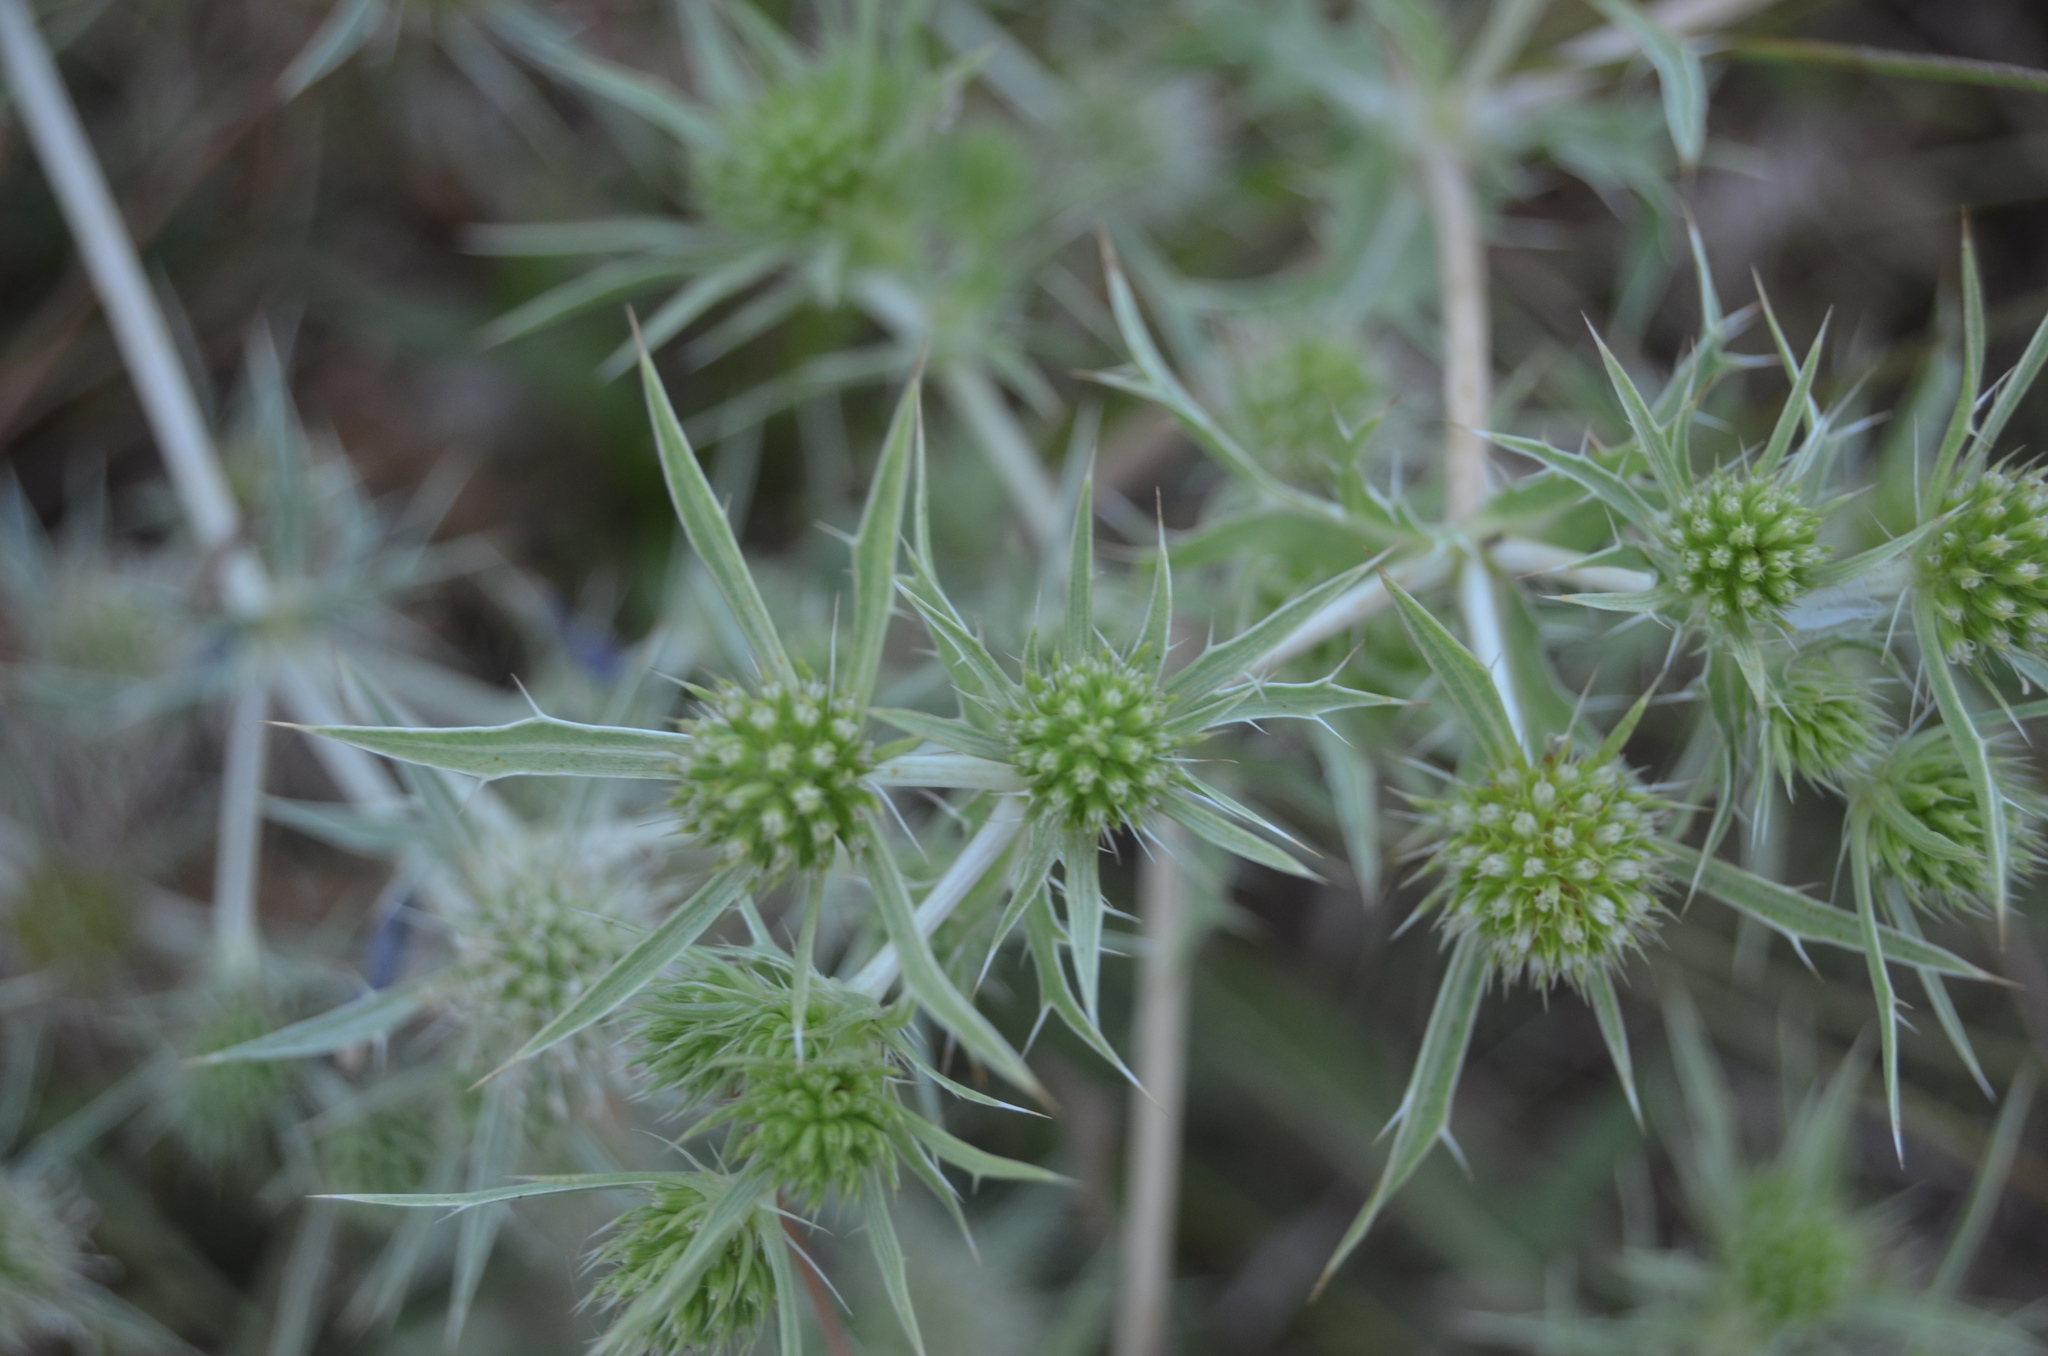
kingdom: Plantae
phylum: Tracheophyta
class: Magnoliopsida
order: Apiales
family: Apiaceae
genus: Eryngium
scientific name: Eryngium campestre
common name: Field eryngo
